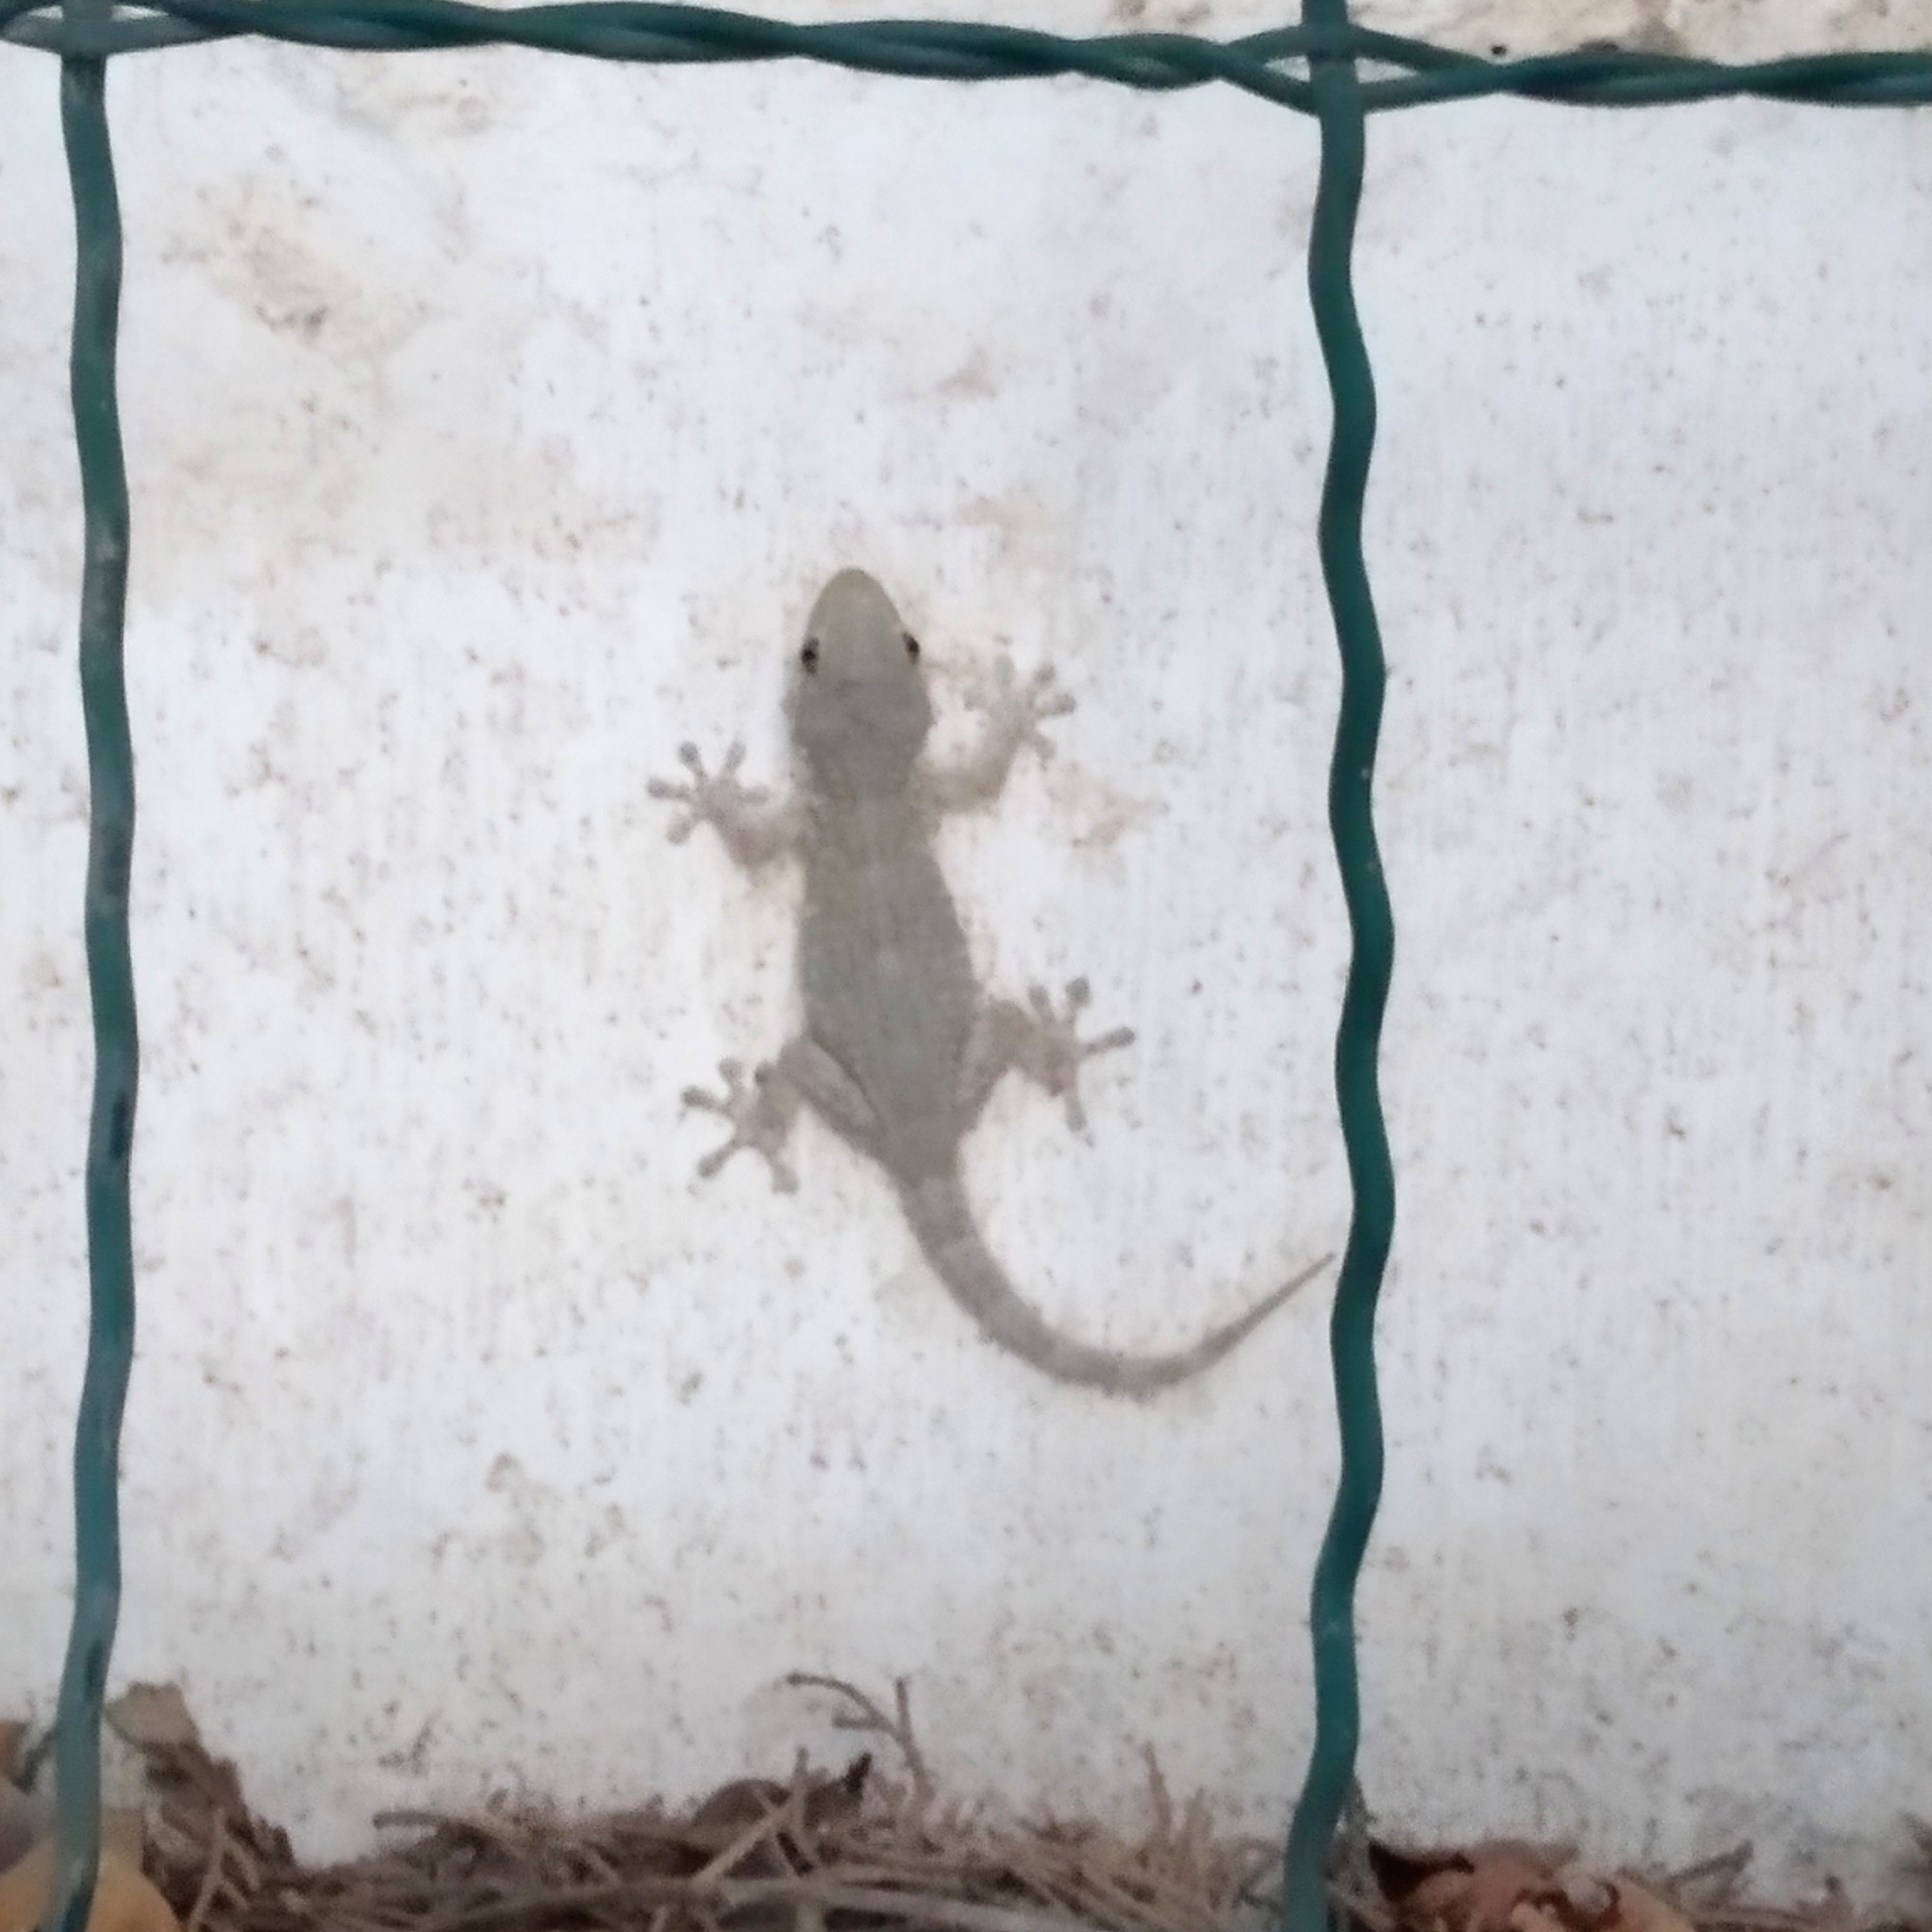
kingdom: Animalia
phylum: Chordata
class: Squamata
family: Phyllodactylidae
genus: Tarentola
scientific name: Tarentola mauritanica
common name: Moorish gecko
